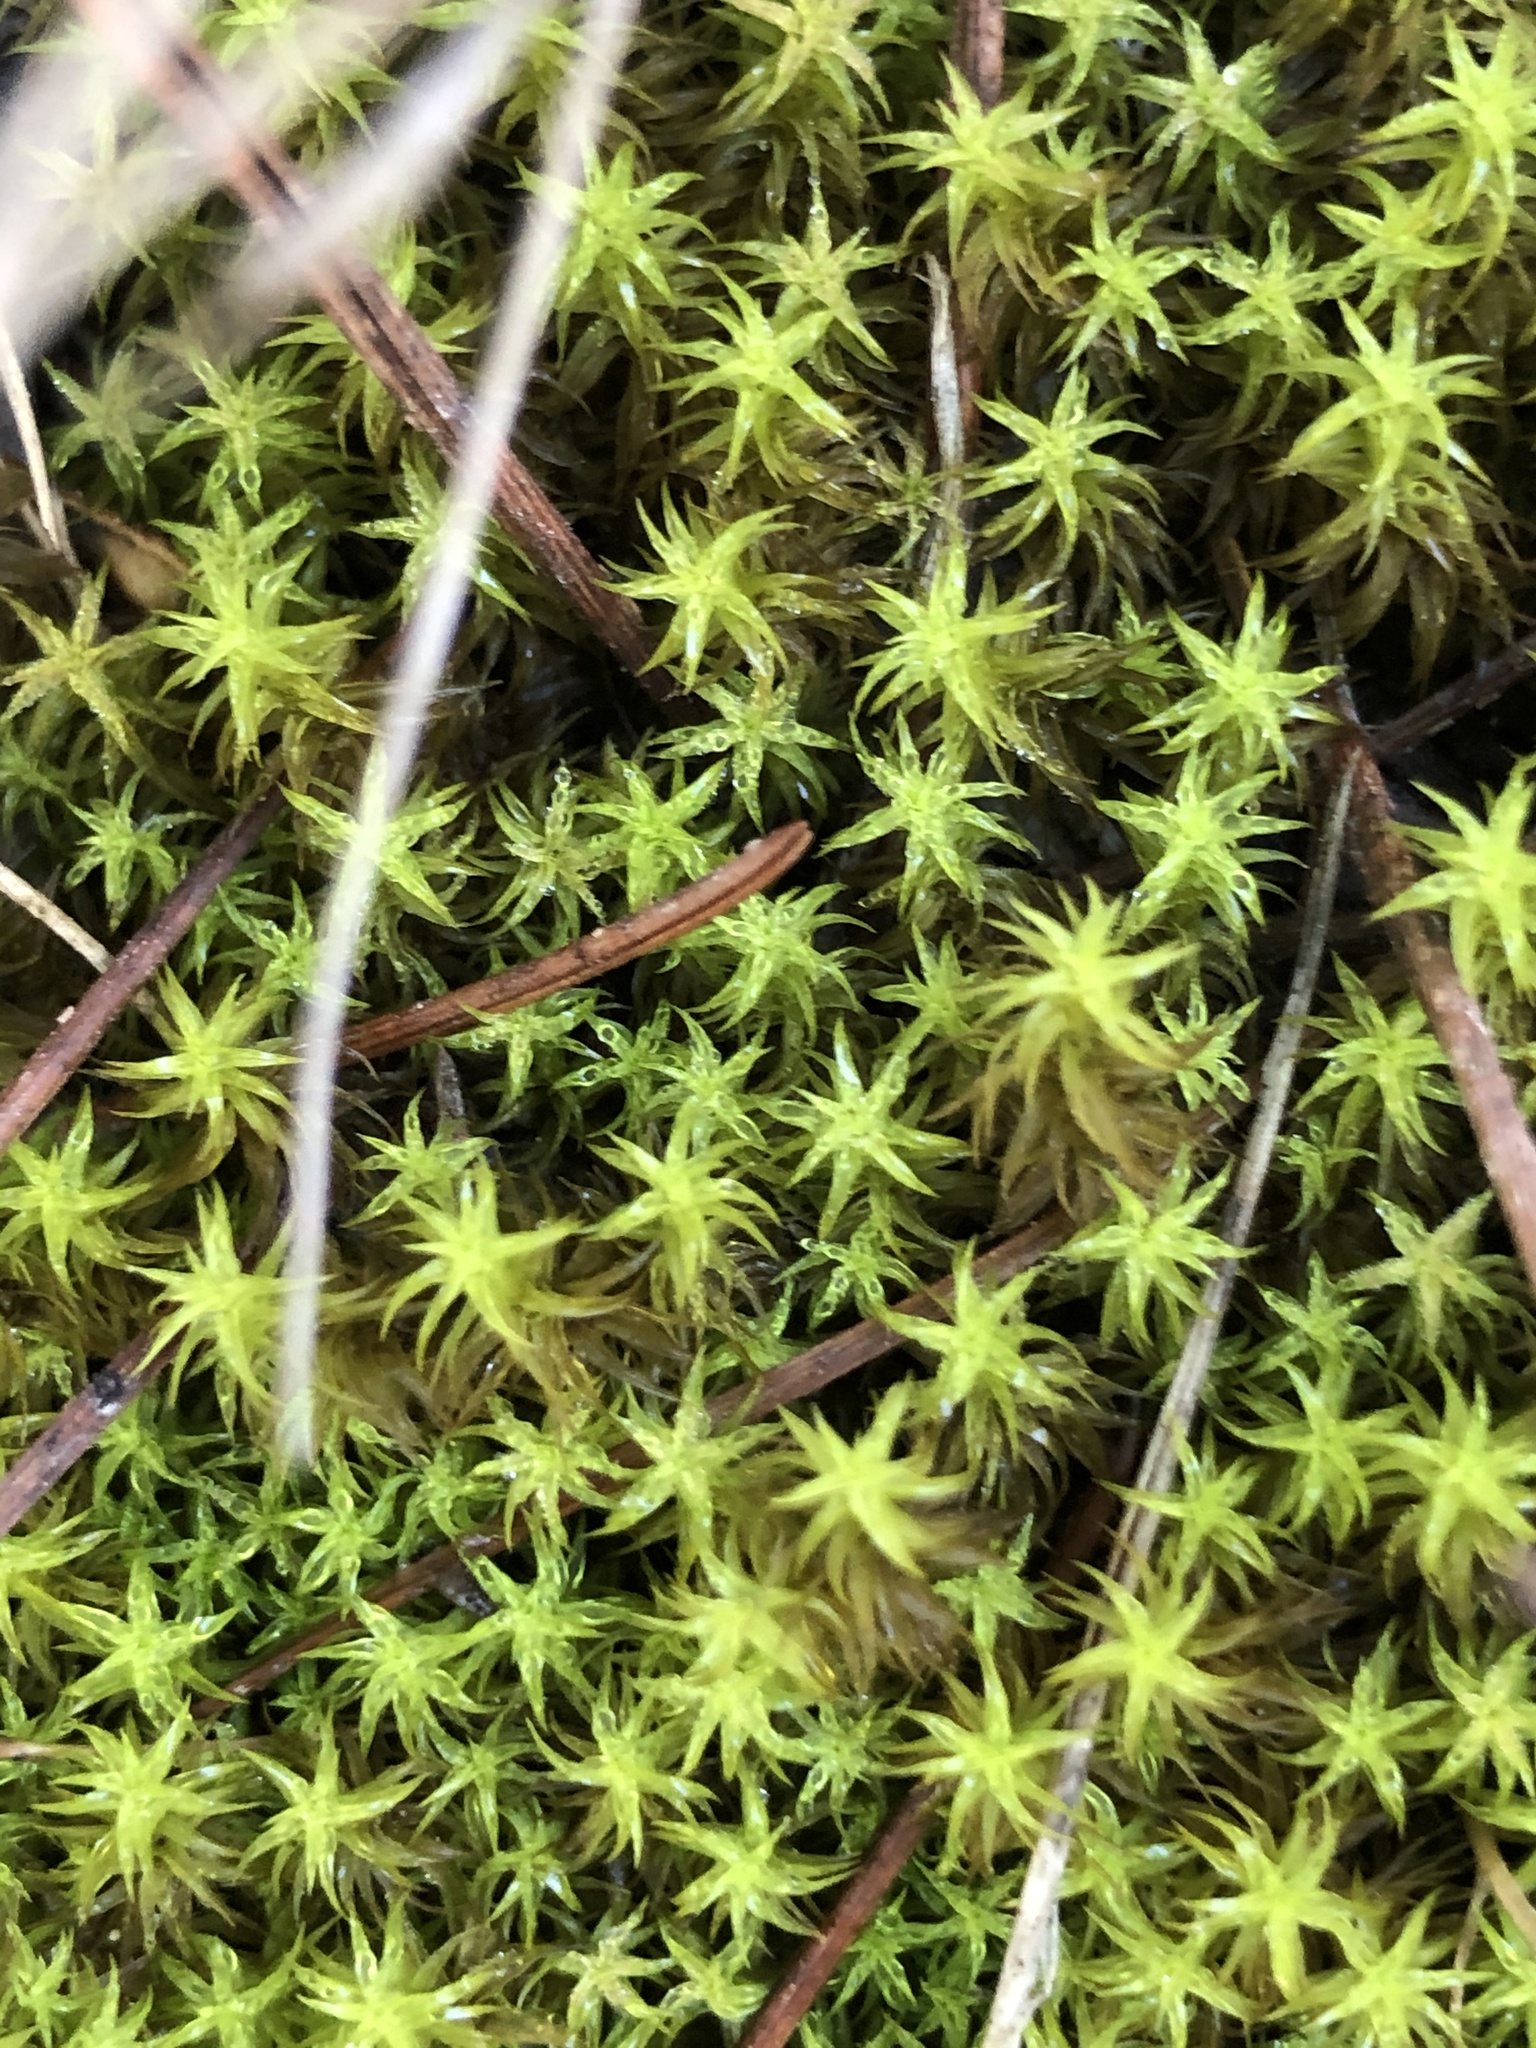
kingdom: Plantae
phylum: Bryophyta
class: Bryopsida
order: Pottiales
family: Pottiaceae
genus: Pleurochaete
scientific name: Pleurochaete squarrosa
